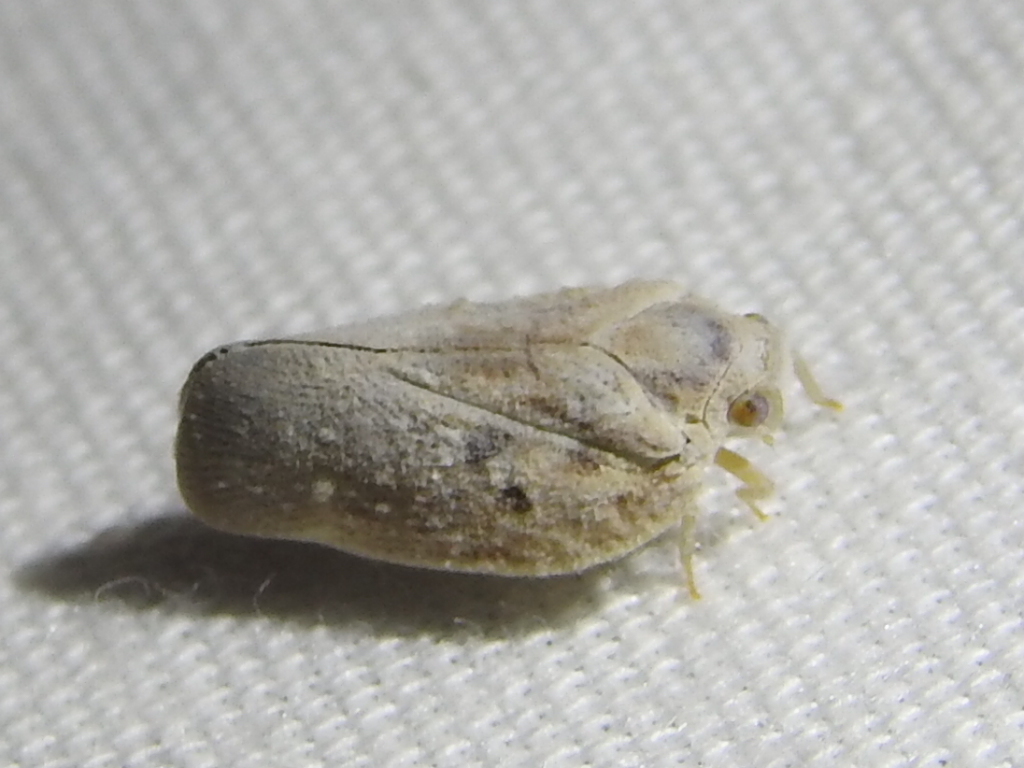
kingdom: Animalia
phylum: Arthropoda
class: Insecta
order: Hemiptera
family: Flatidae
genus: Metcalfa
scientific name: Metcalfa pruinosa
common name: Citrus flatid planthopper
